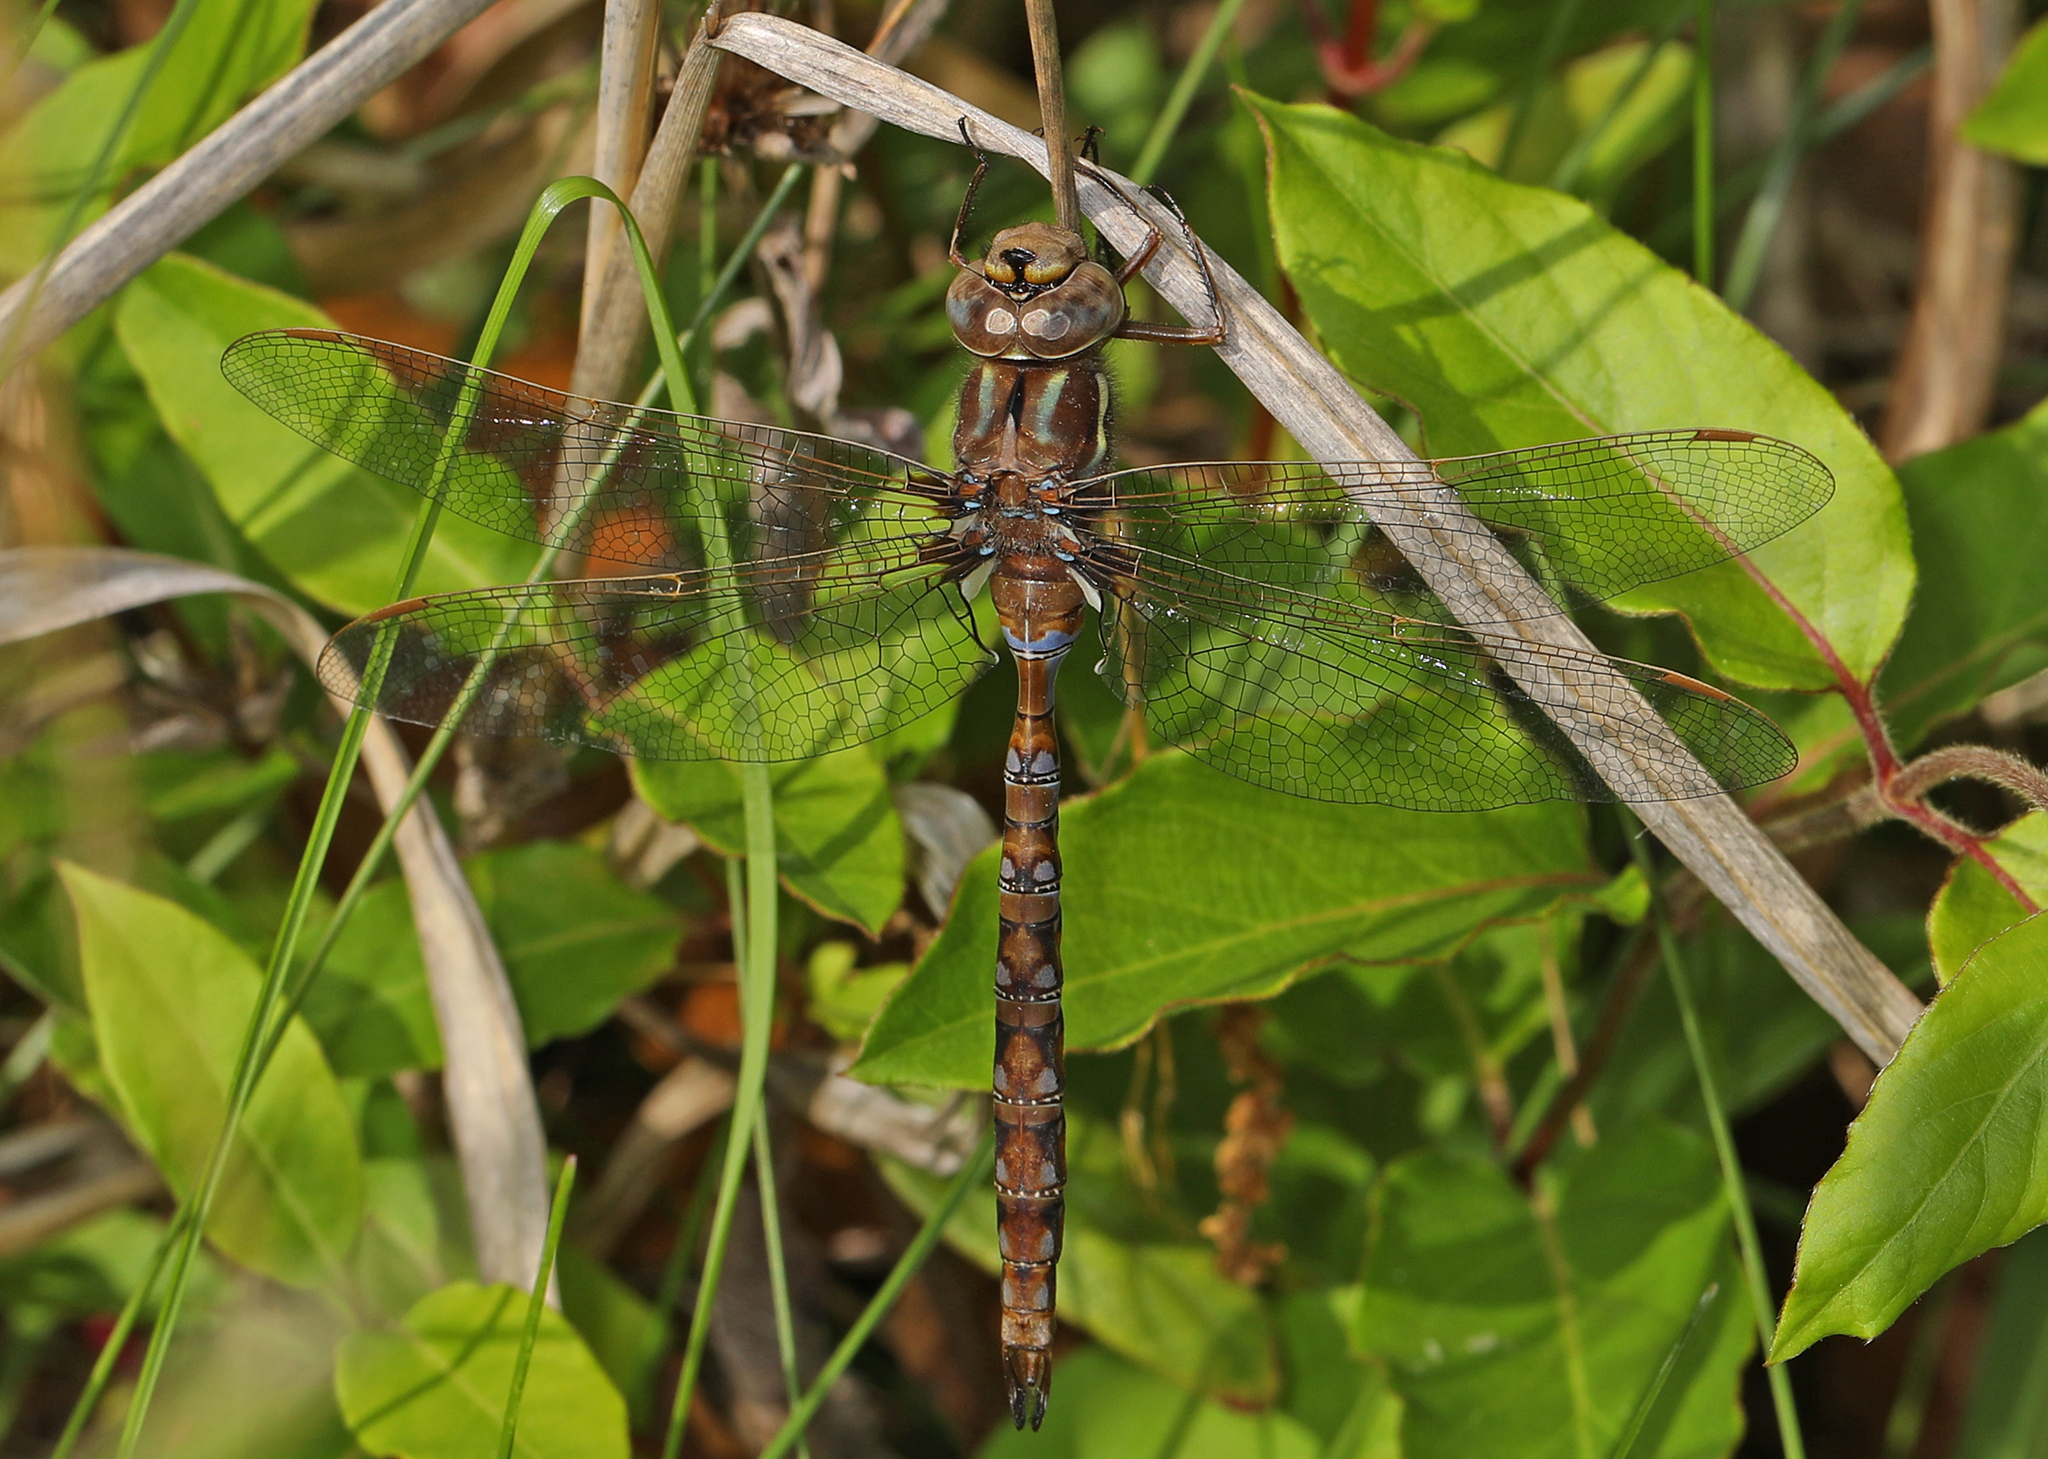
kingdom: Animalia
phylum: Arthropoda
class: Insecta
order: Odonata
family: Aeshnidae
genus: Basiaeschna
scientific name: Basiaeschna janata
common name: Springtime darner
